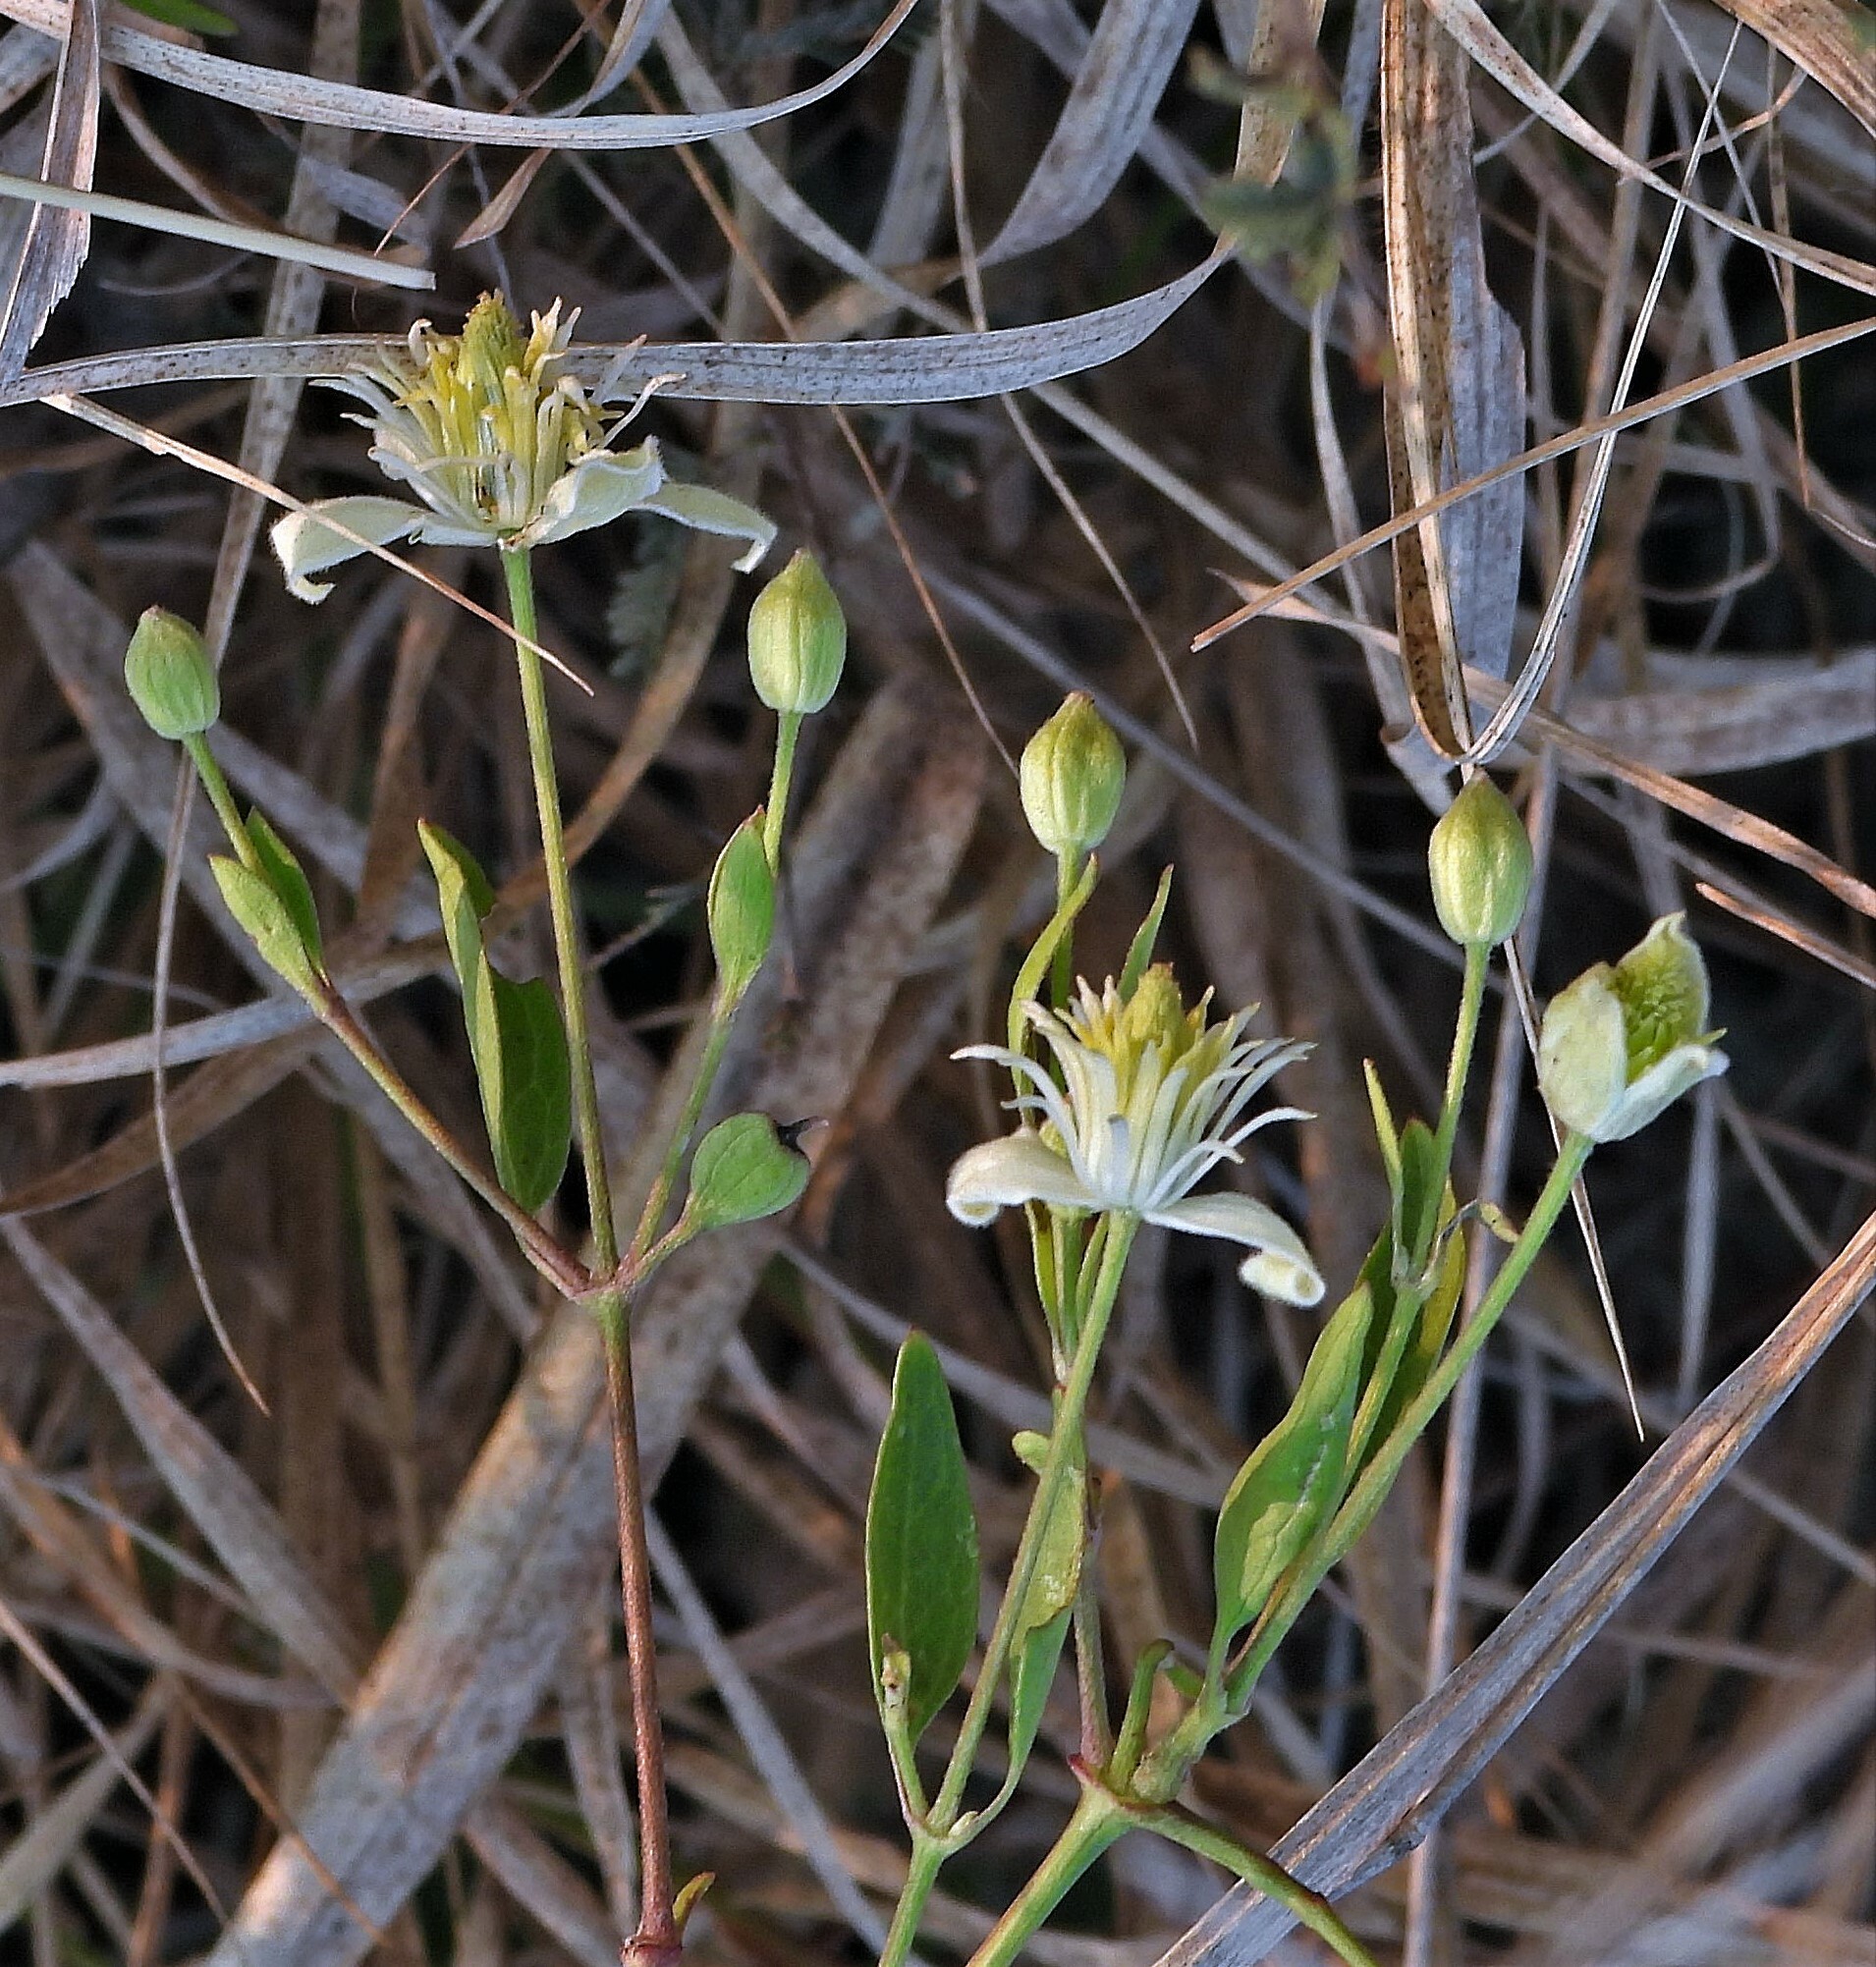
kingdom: Plantae
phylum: Tracheophyta
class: Magnoliopsida
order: Ranunculales
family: Ranunculaceae
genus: Clematis
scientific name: Clematis montevidensis
